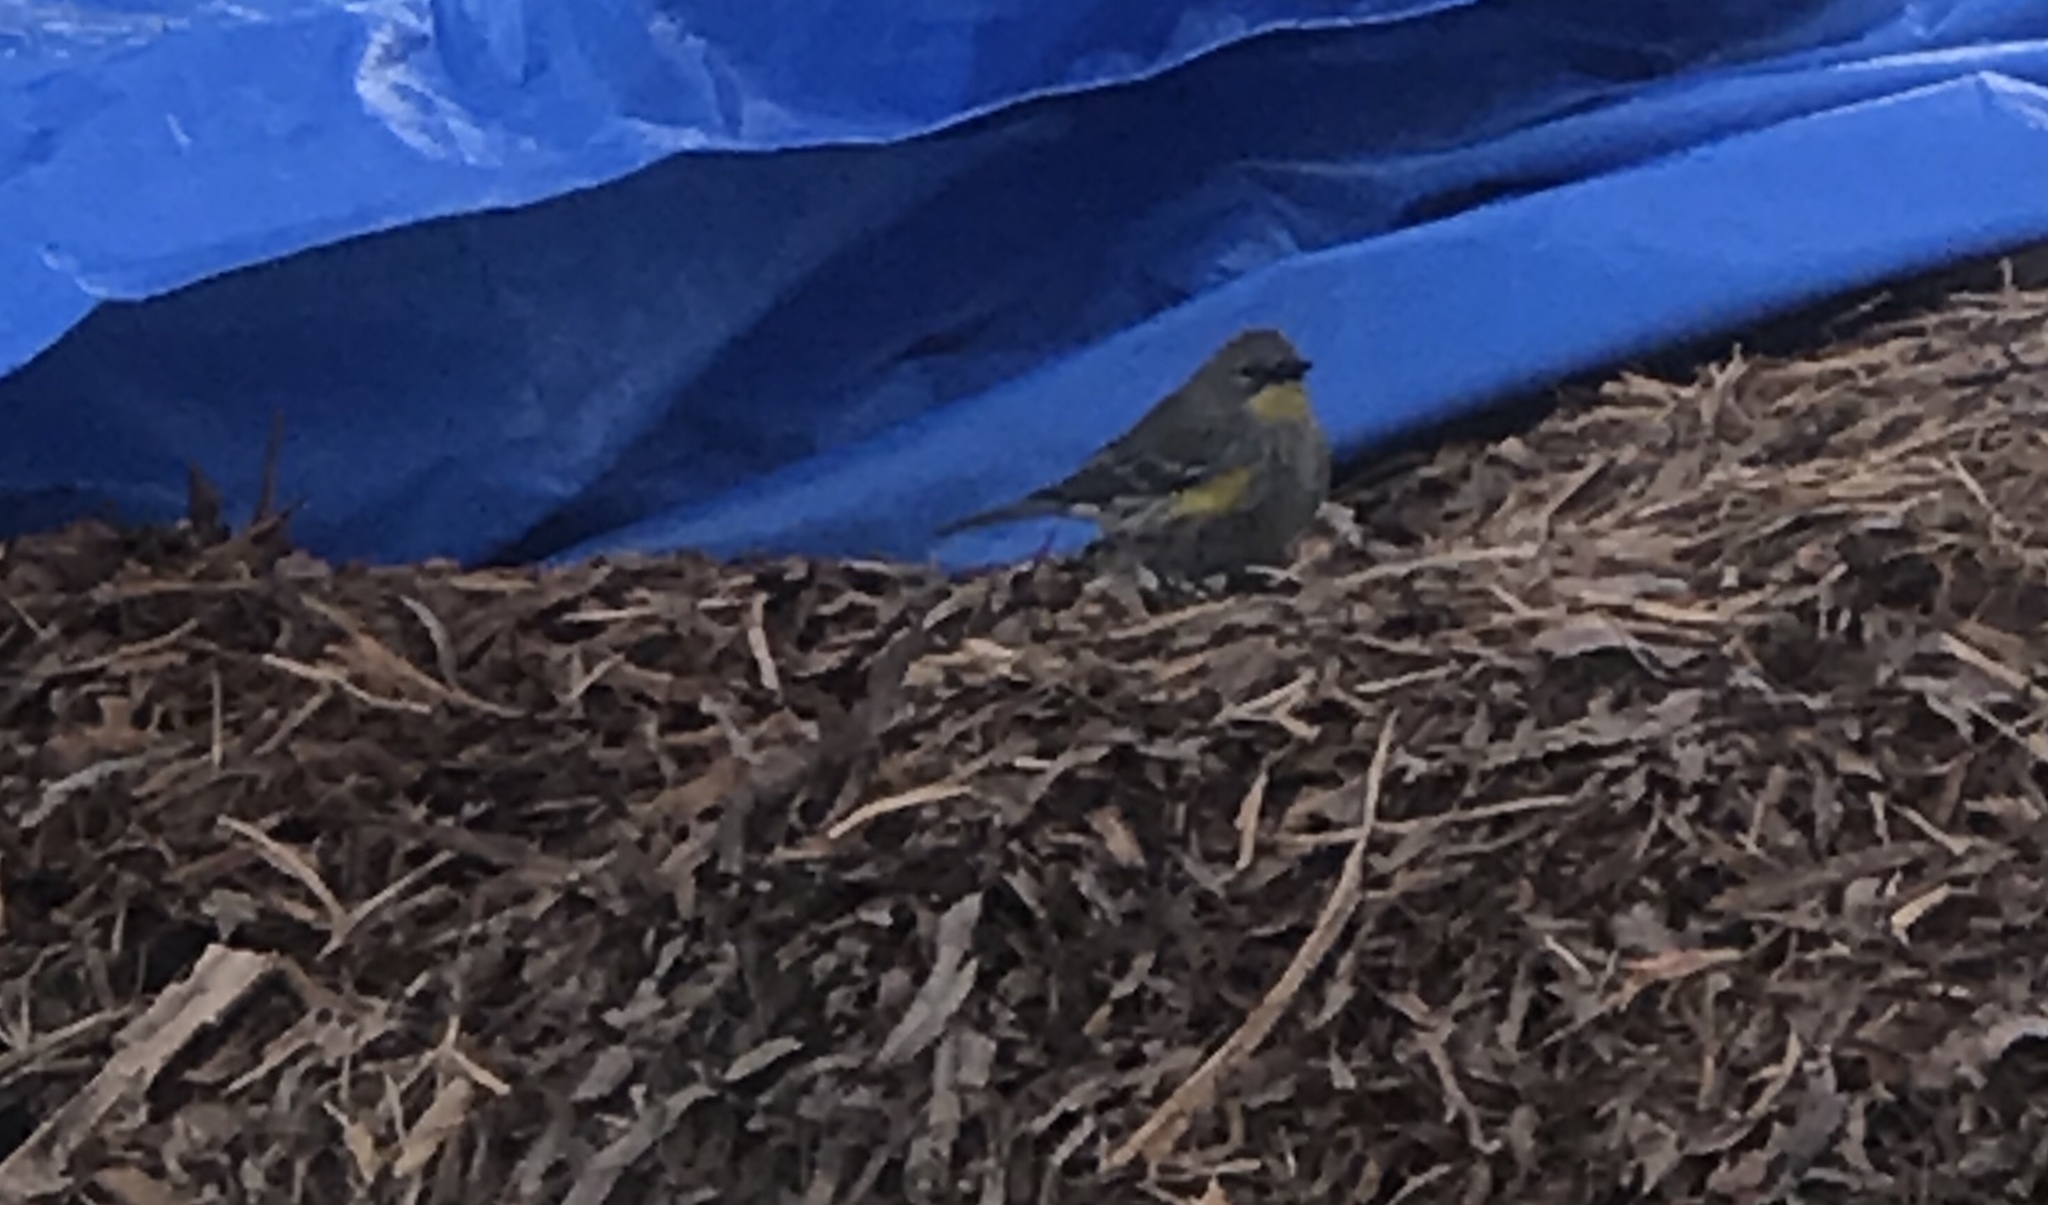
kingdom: Animalia
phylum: Chordata
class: Aves
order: Passeriformes
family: Parulidae
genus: Setophaga
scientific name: Setophaga coronata
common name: Myrtle warbler
